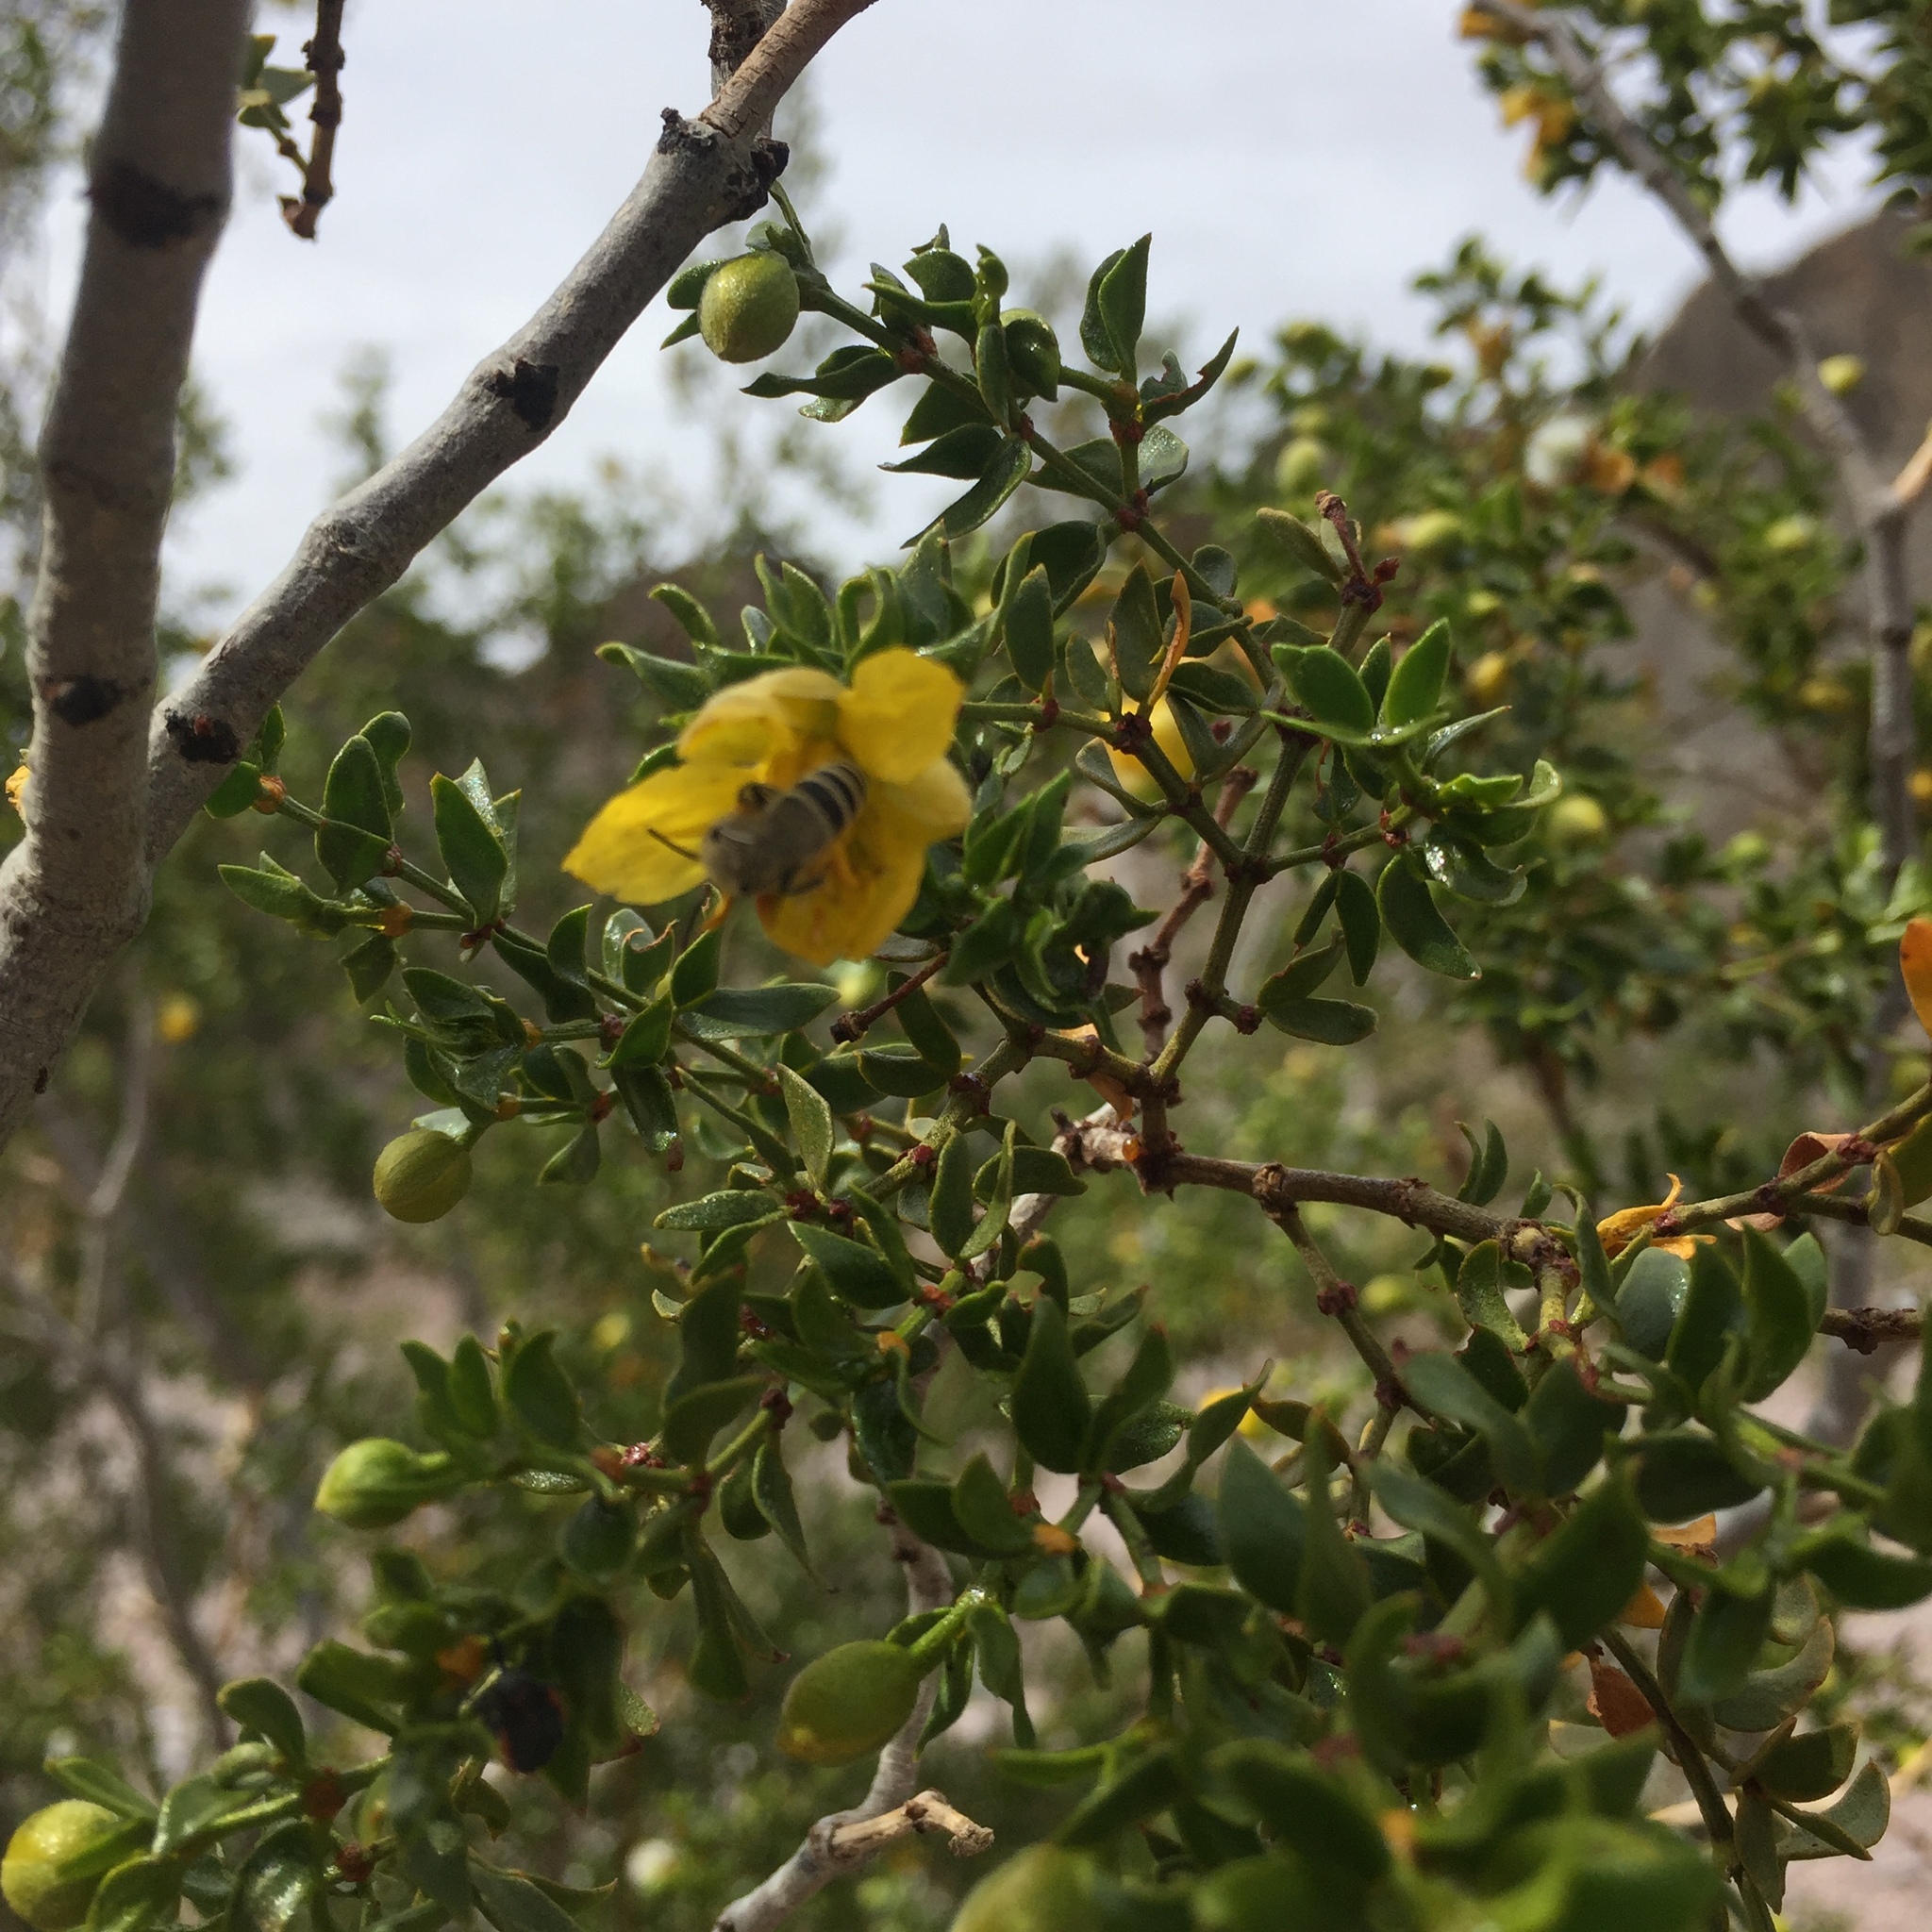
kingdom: Plantae
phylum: Tracheophyta
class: Magnoliopsida
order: Zygophyllales
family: Zygophyllaceae
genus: Larrea
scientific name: Larrea tridentata
